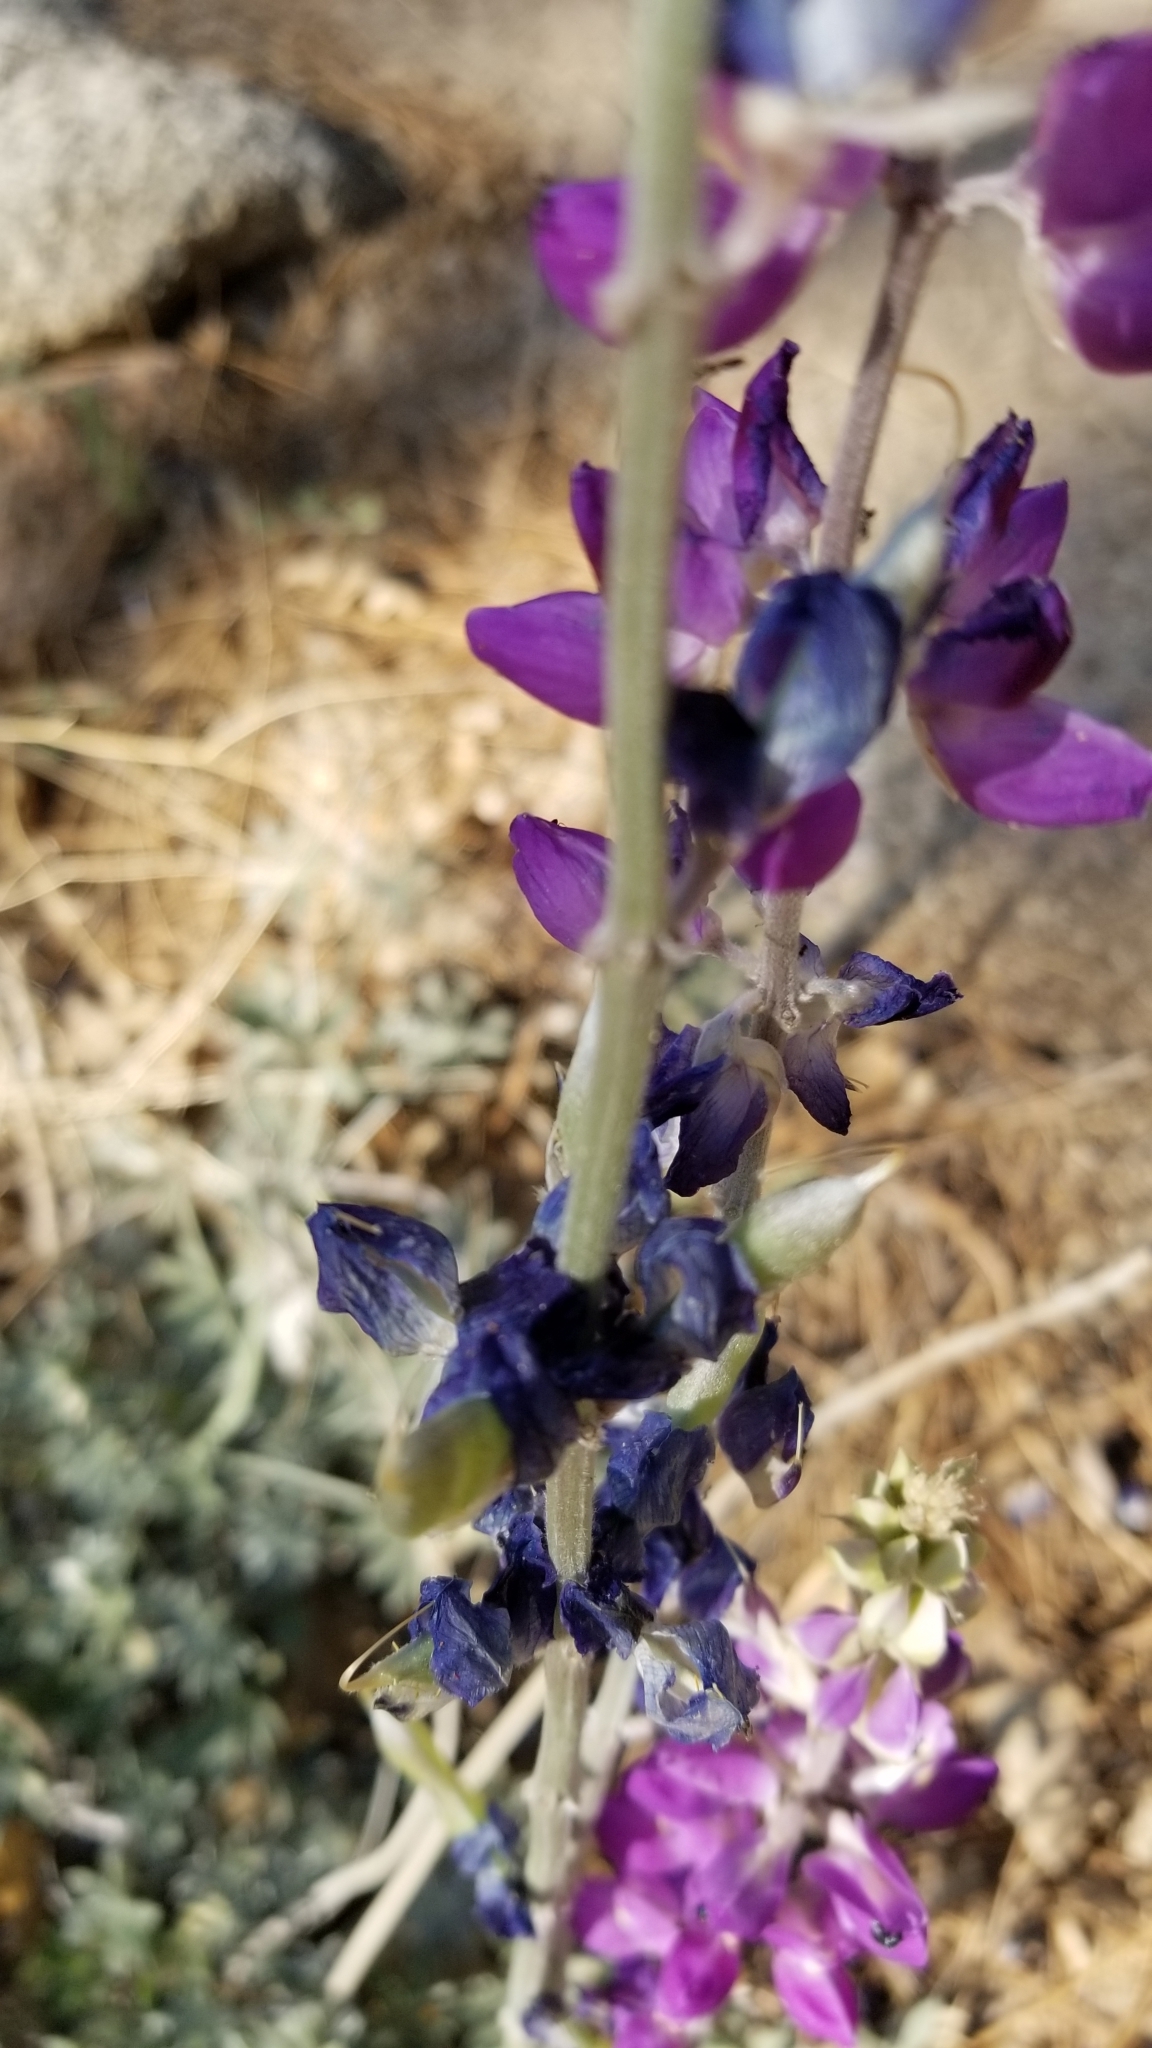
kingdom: Plantae
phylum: Tracheophyta
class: Magnoliopsida
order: Fabales
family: Fabaceae
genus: Lupinus
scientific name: Lupinus excubitus
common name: Grape soda lupine
